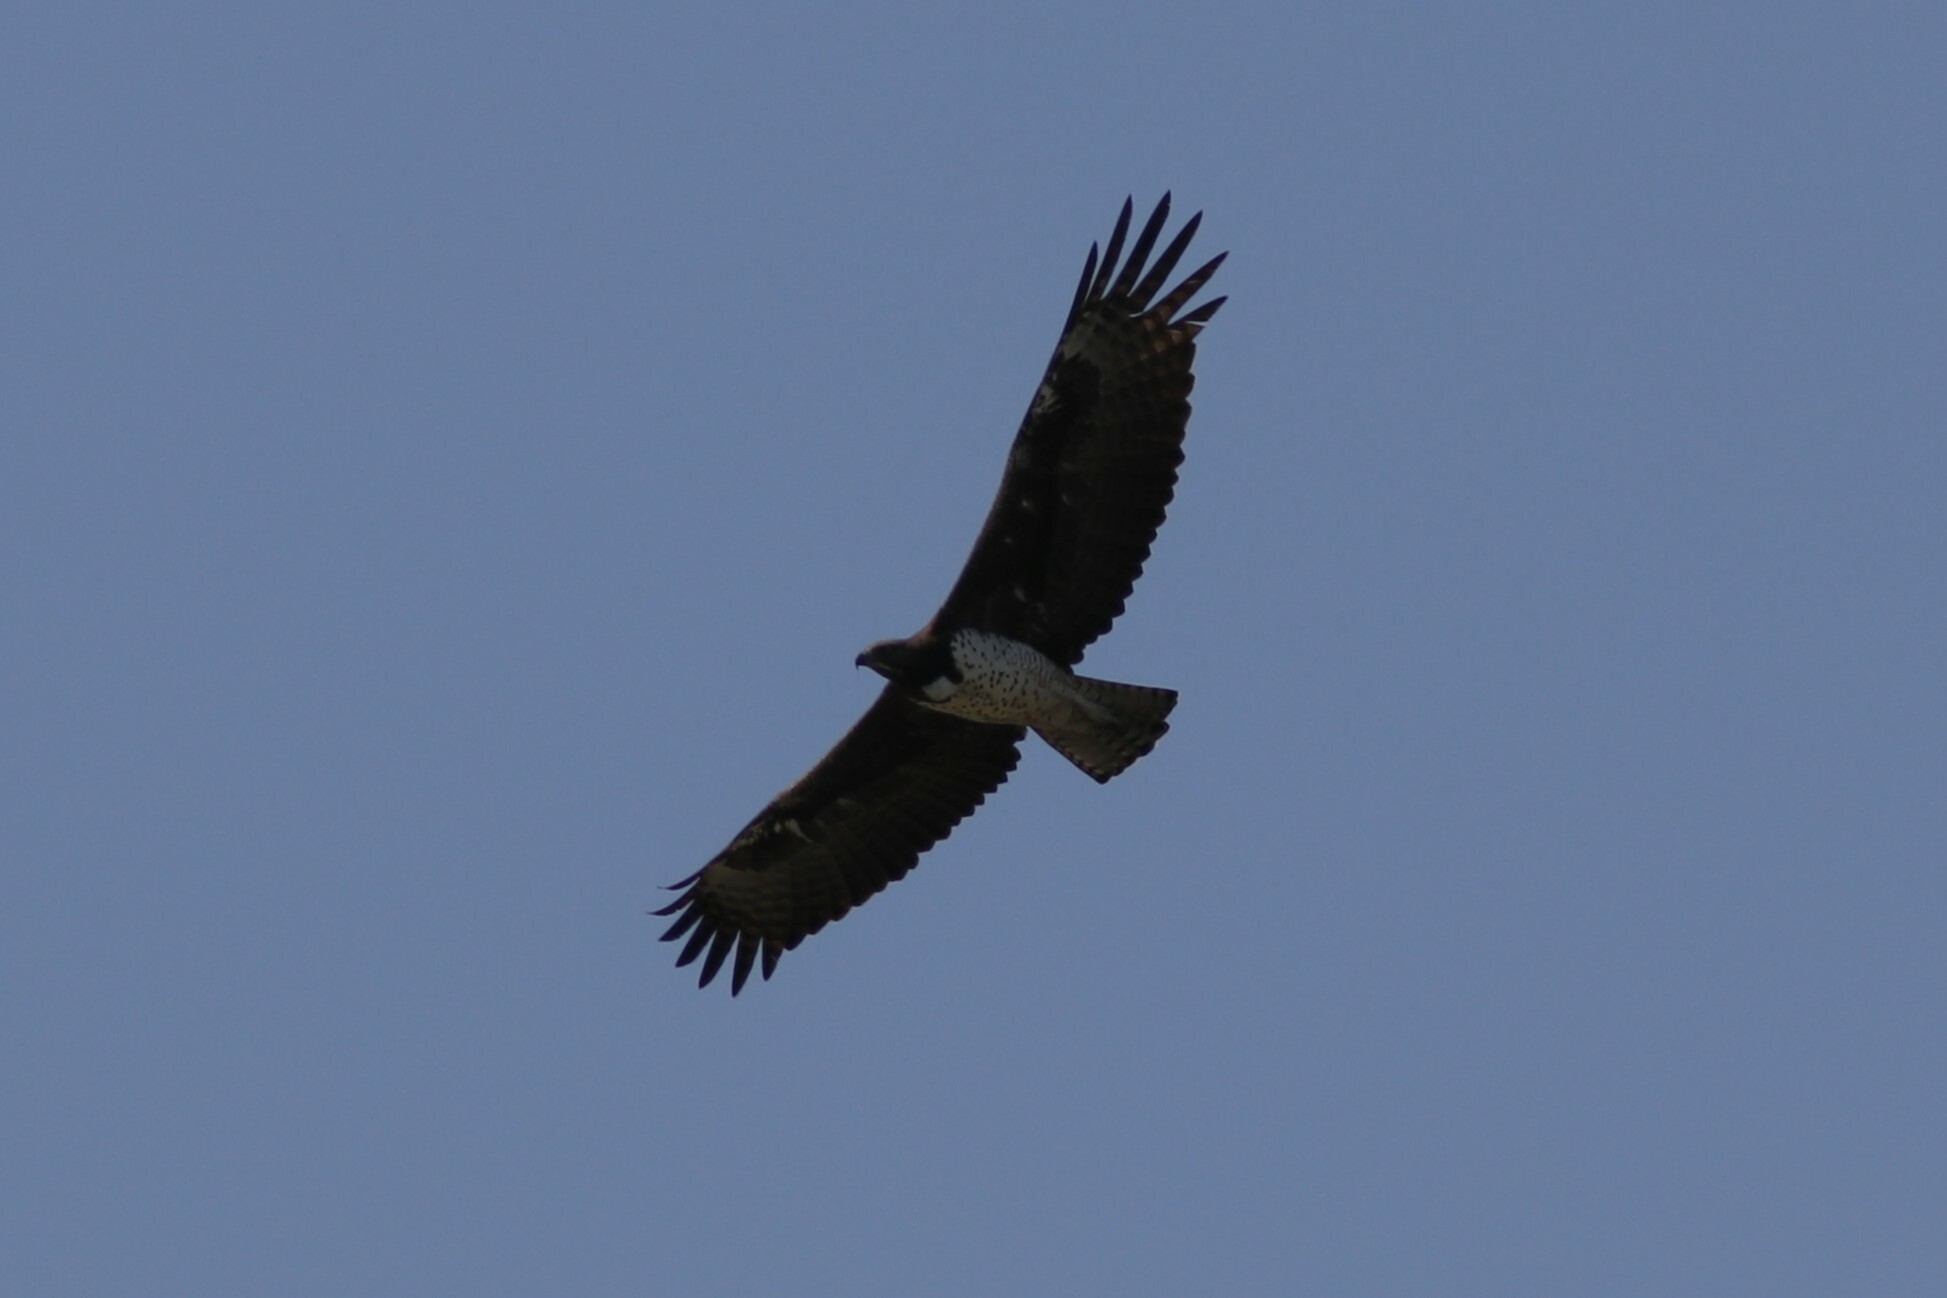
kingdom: Animalia
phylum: Chordata
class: Aves
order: Accipitriformes
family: Accipitridae
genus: Polemaetus
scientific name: Polemaetus bellicosus
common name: Martial eagle
